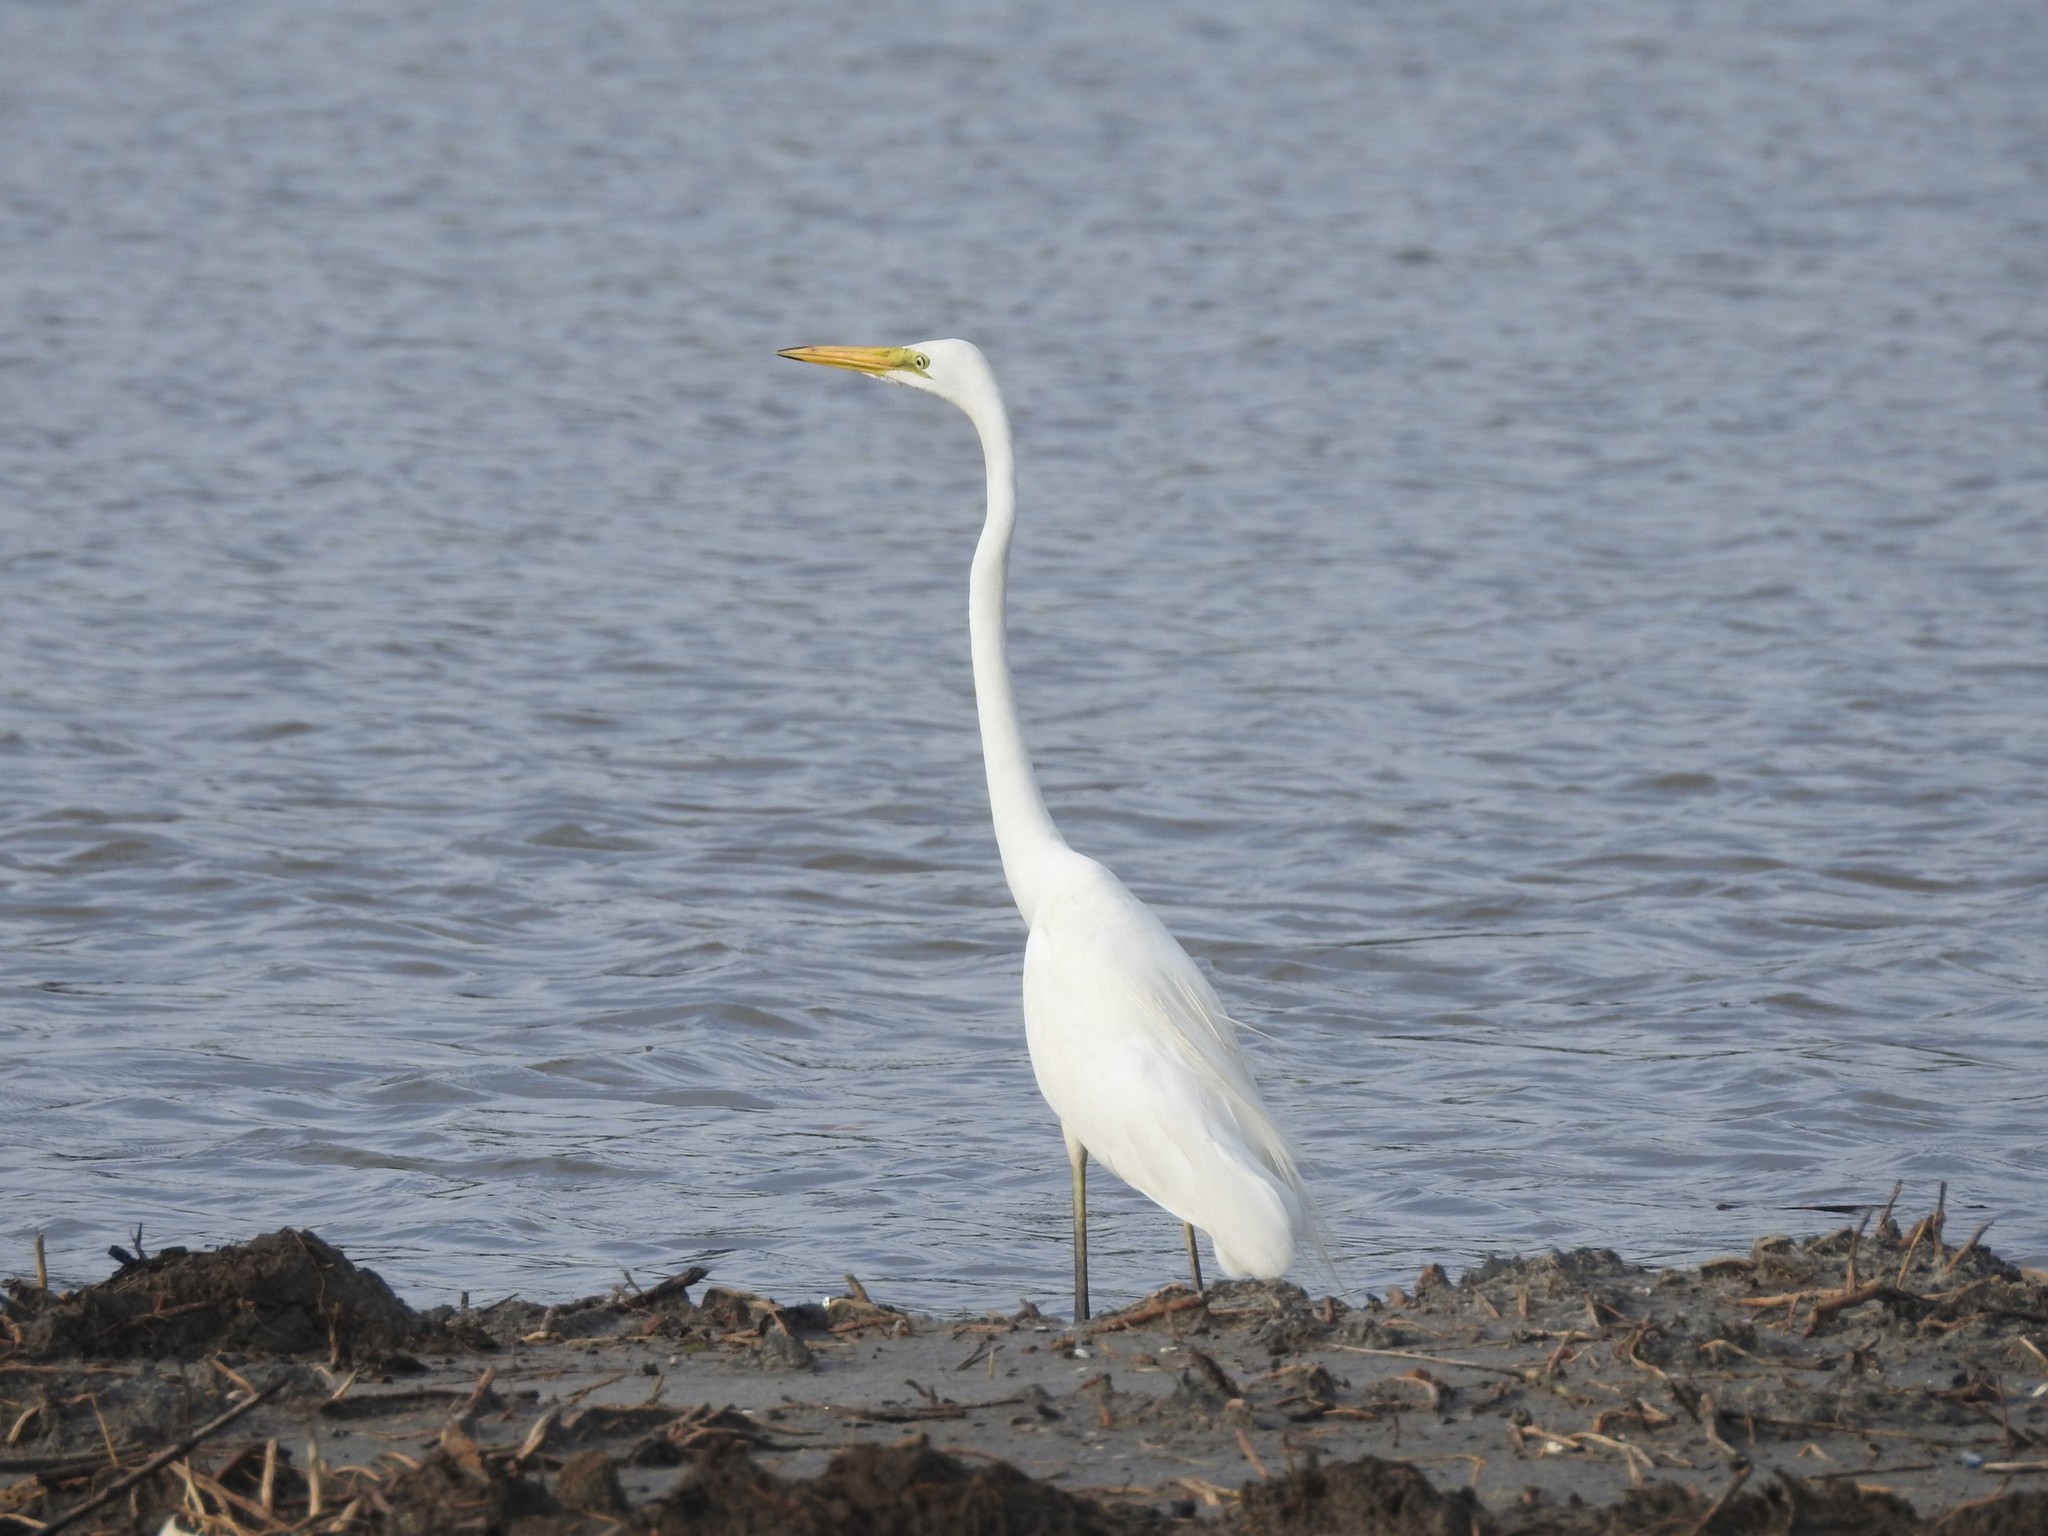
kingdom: Animalia
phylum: Chordata
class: Aves
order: Pelecaniformes
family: Ardeidae
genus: Ardea
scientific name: Ardea alba
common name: Great egret
